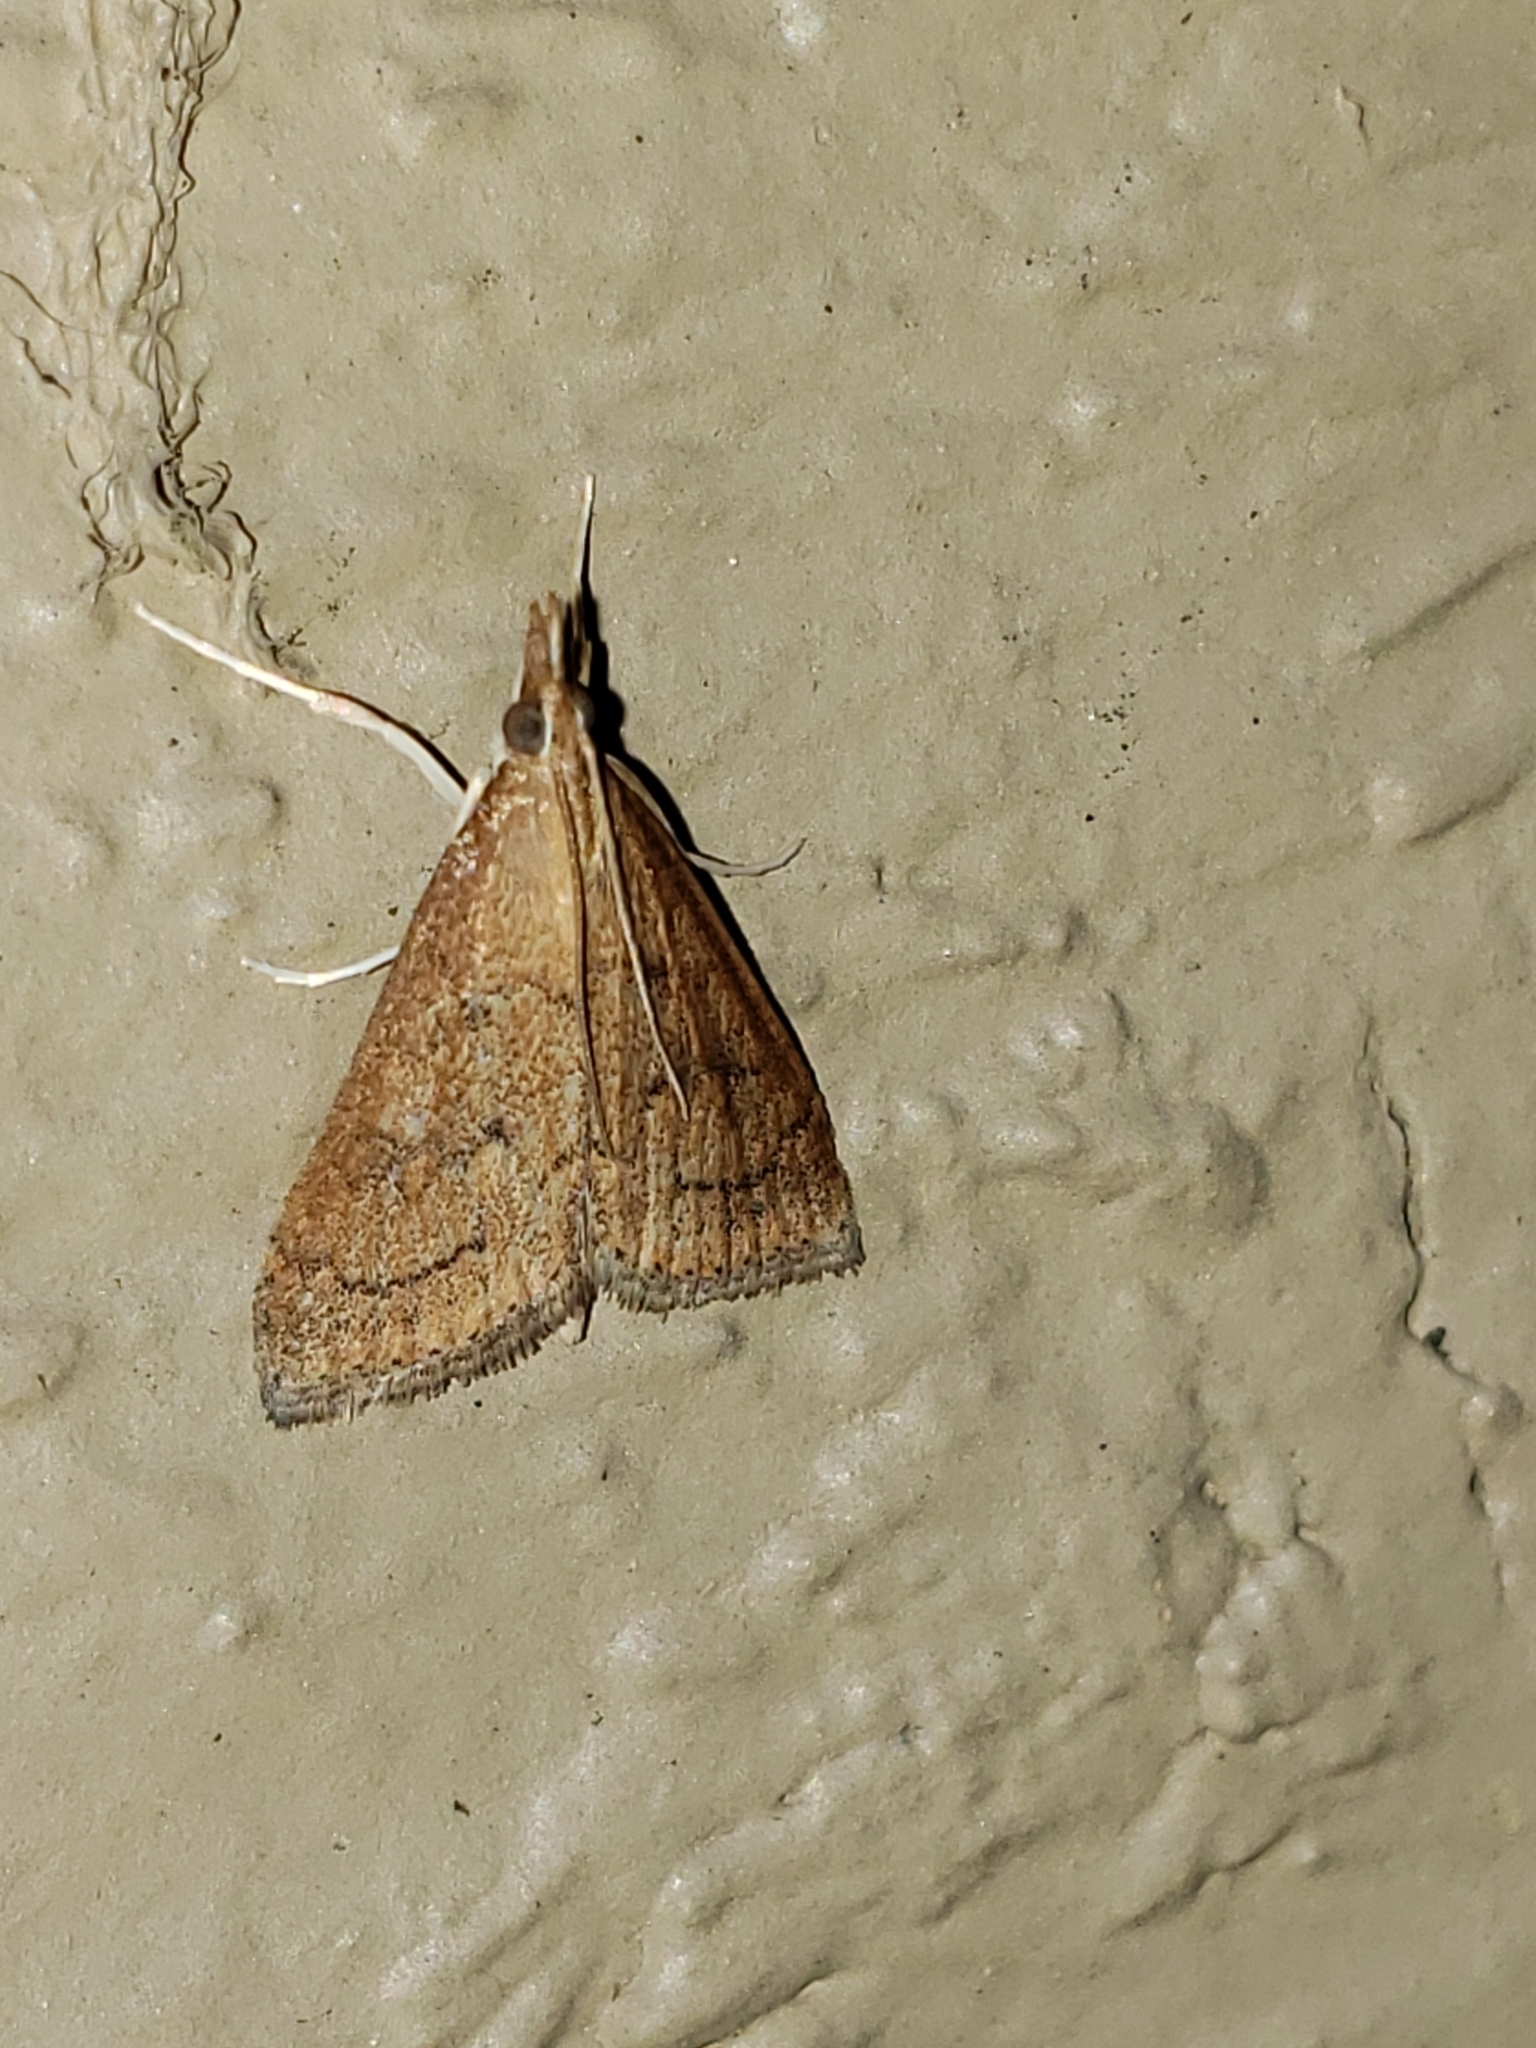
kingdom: Animalia
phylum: Arthropoda
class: Insecta
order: Lepidoptera
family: Crambidae
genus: Udea
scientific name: Udea rubigalis
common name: Celery leaftier moth
